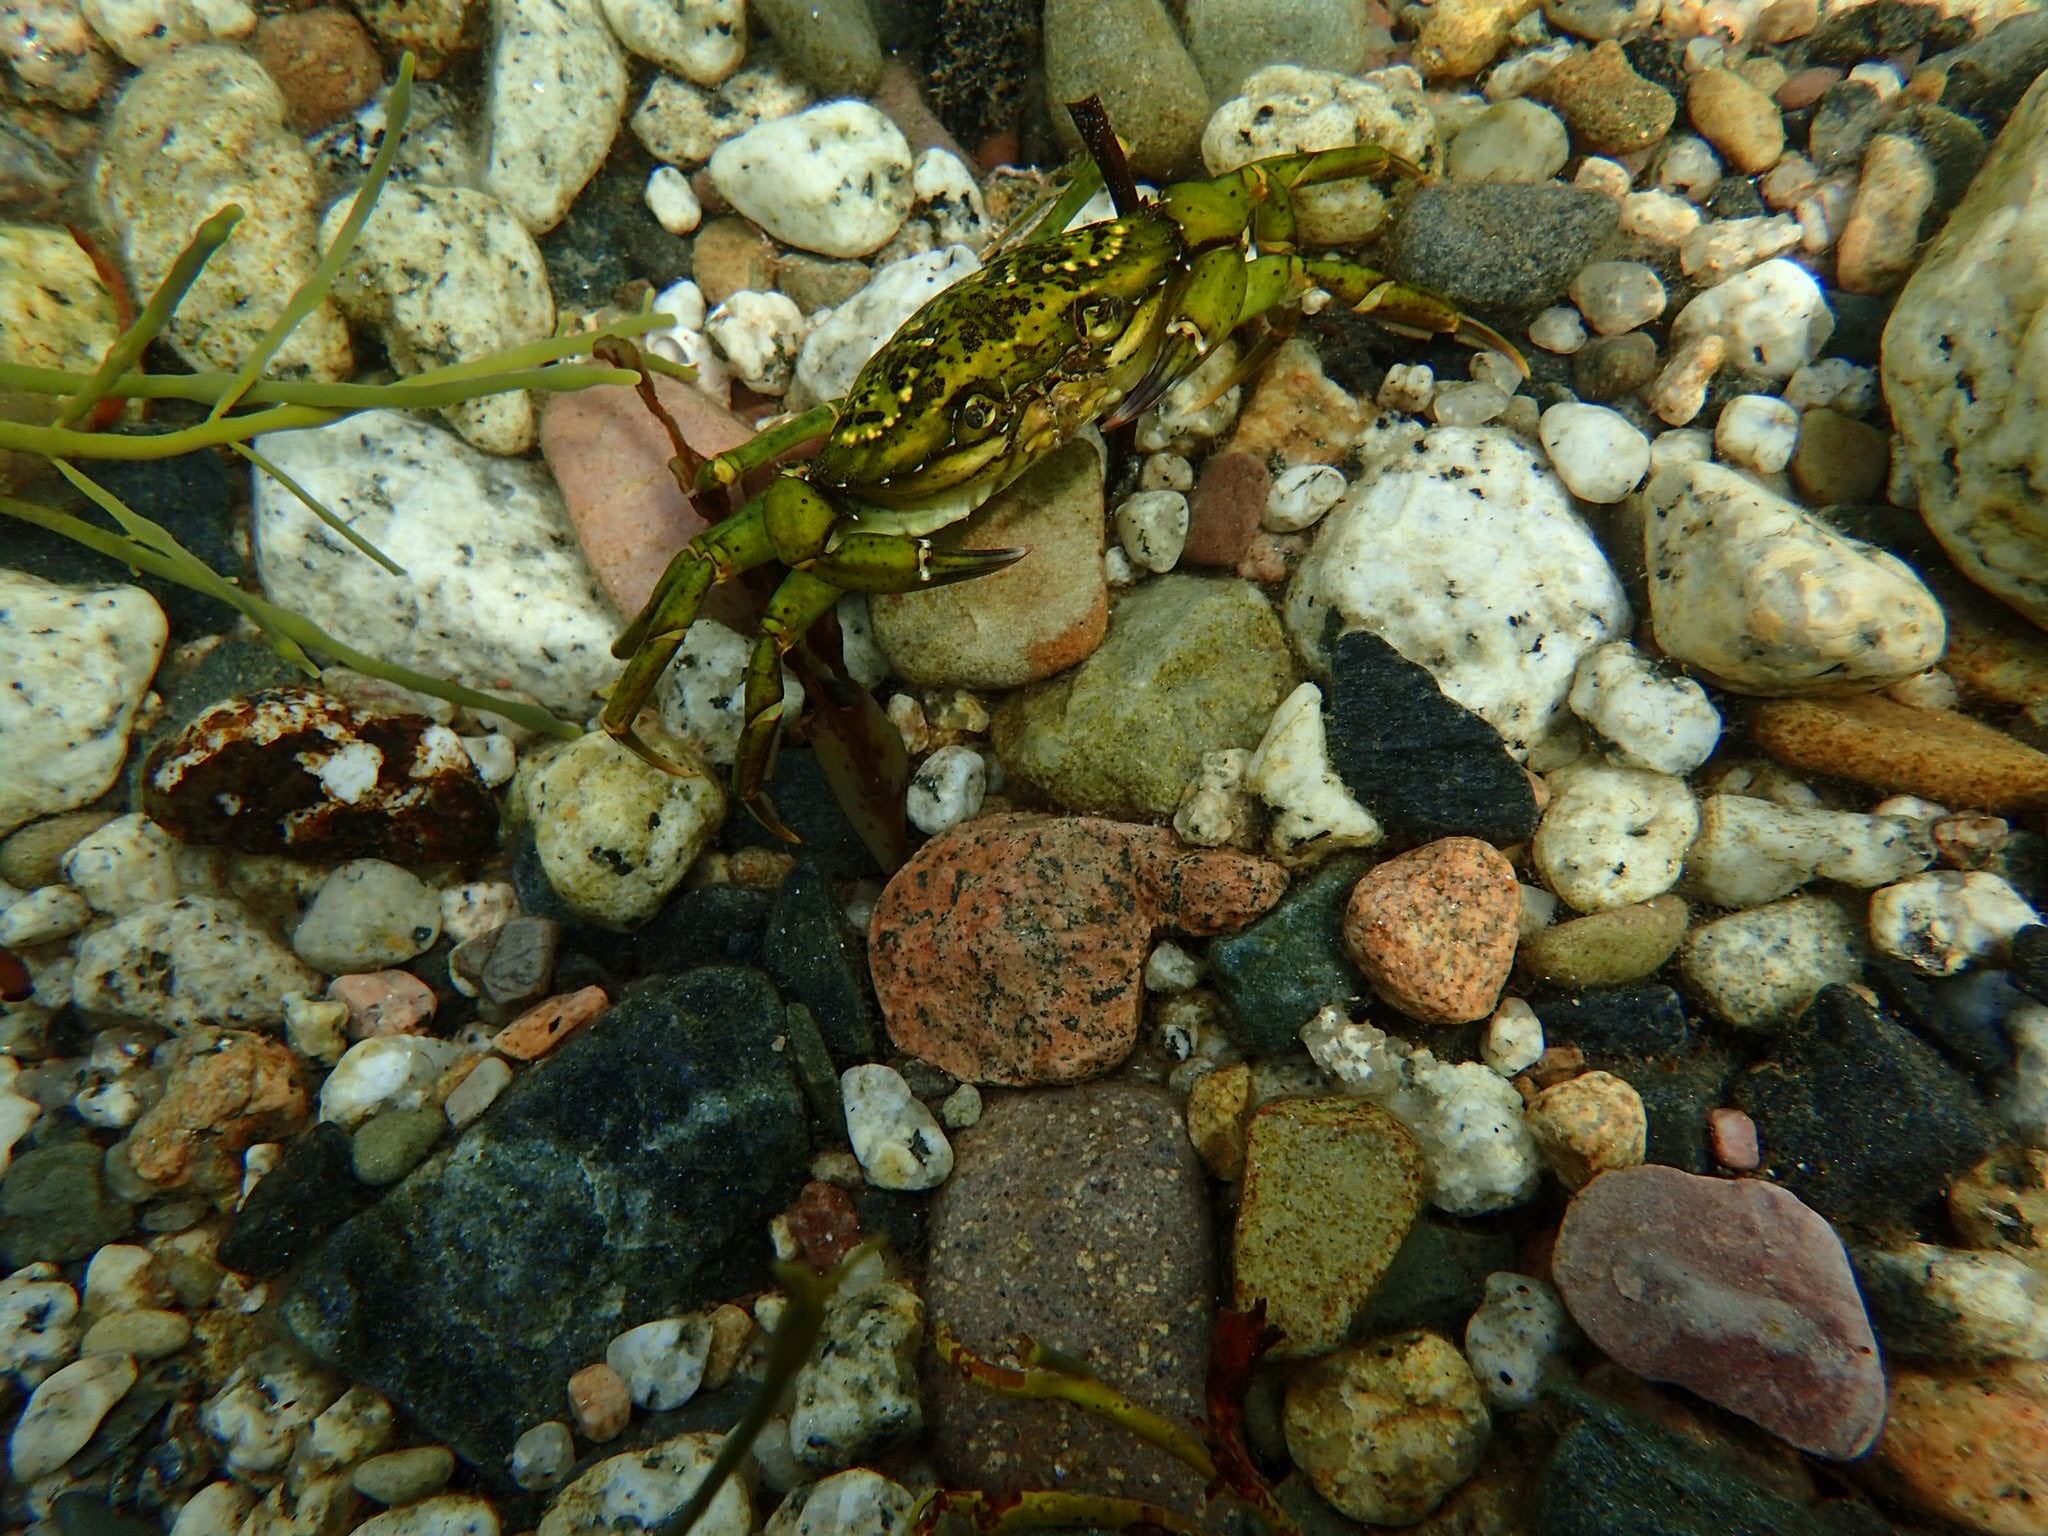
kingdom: Animalia
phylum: Arthropoda
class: Malacostraca
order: Decapoda
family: Carcinidae
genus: Carcinus
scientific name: Carcinus maenas
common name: European green crab
